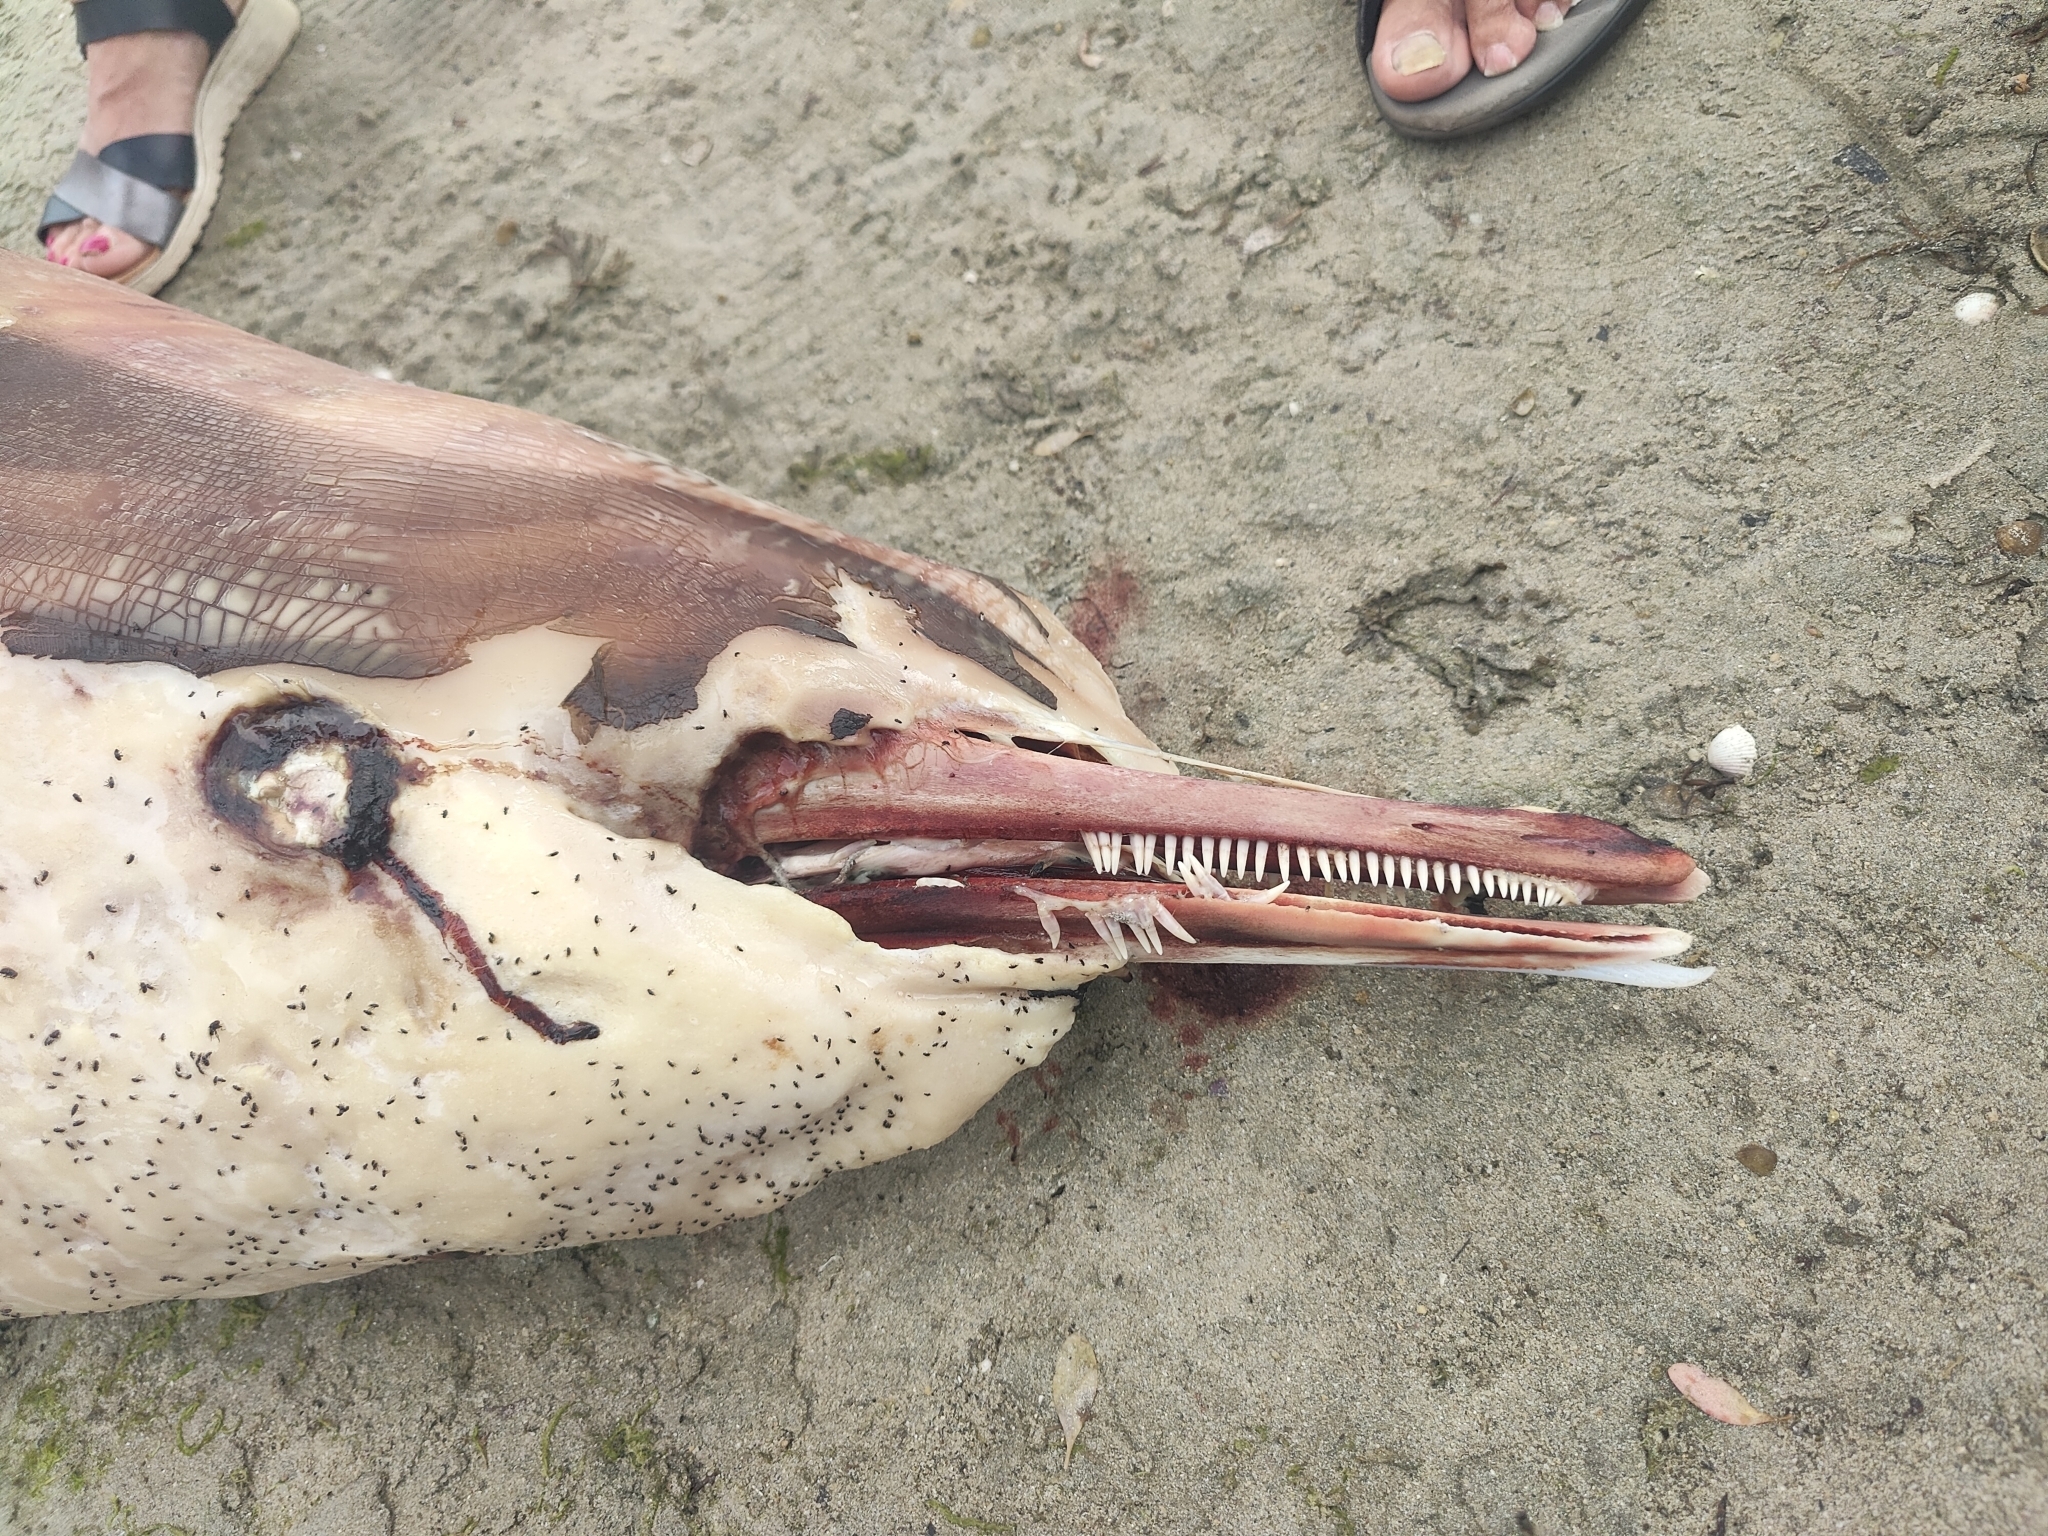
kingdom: Animalia
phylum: Chordata
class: Mammalia
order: Cetacea
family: Delphinidae
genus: Delphinus
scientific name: Delphinus delphis
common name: Common dolphin
